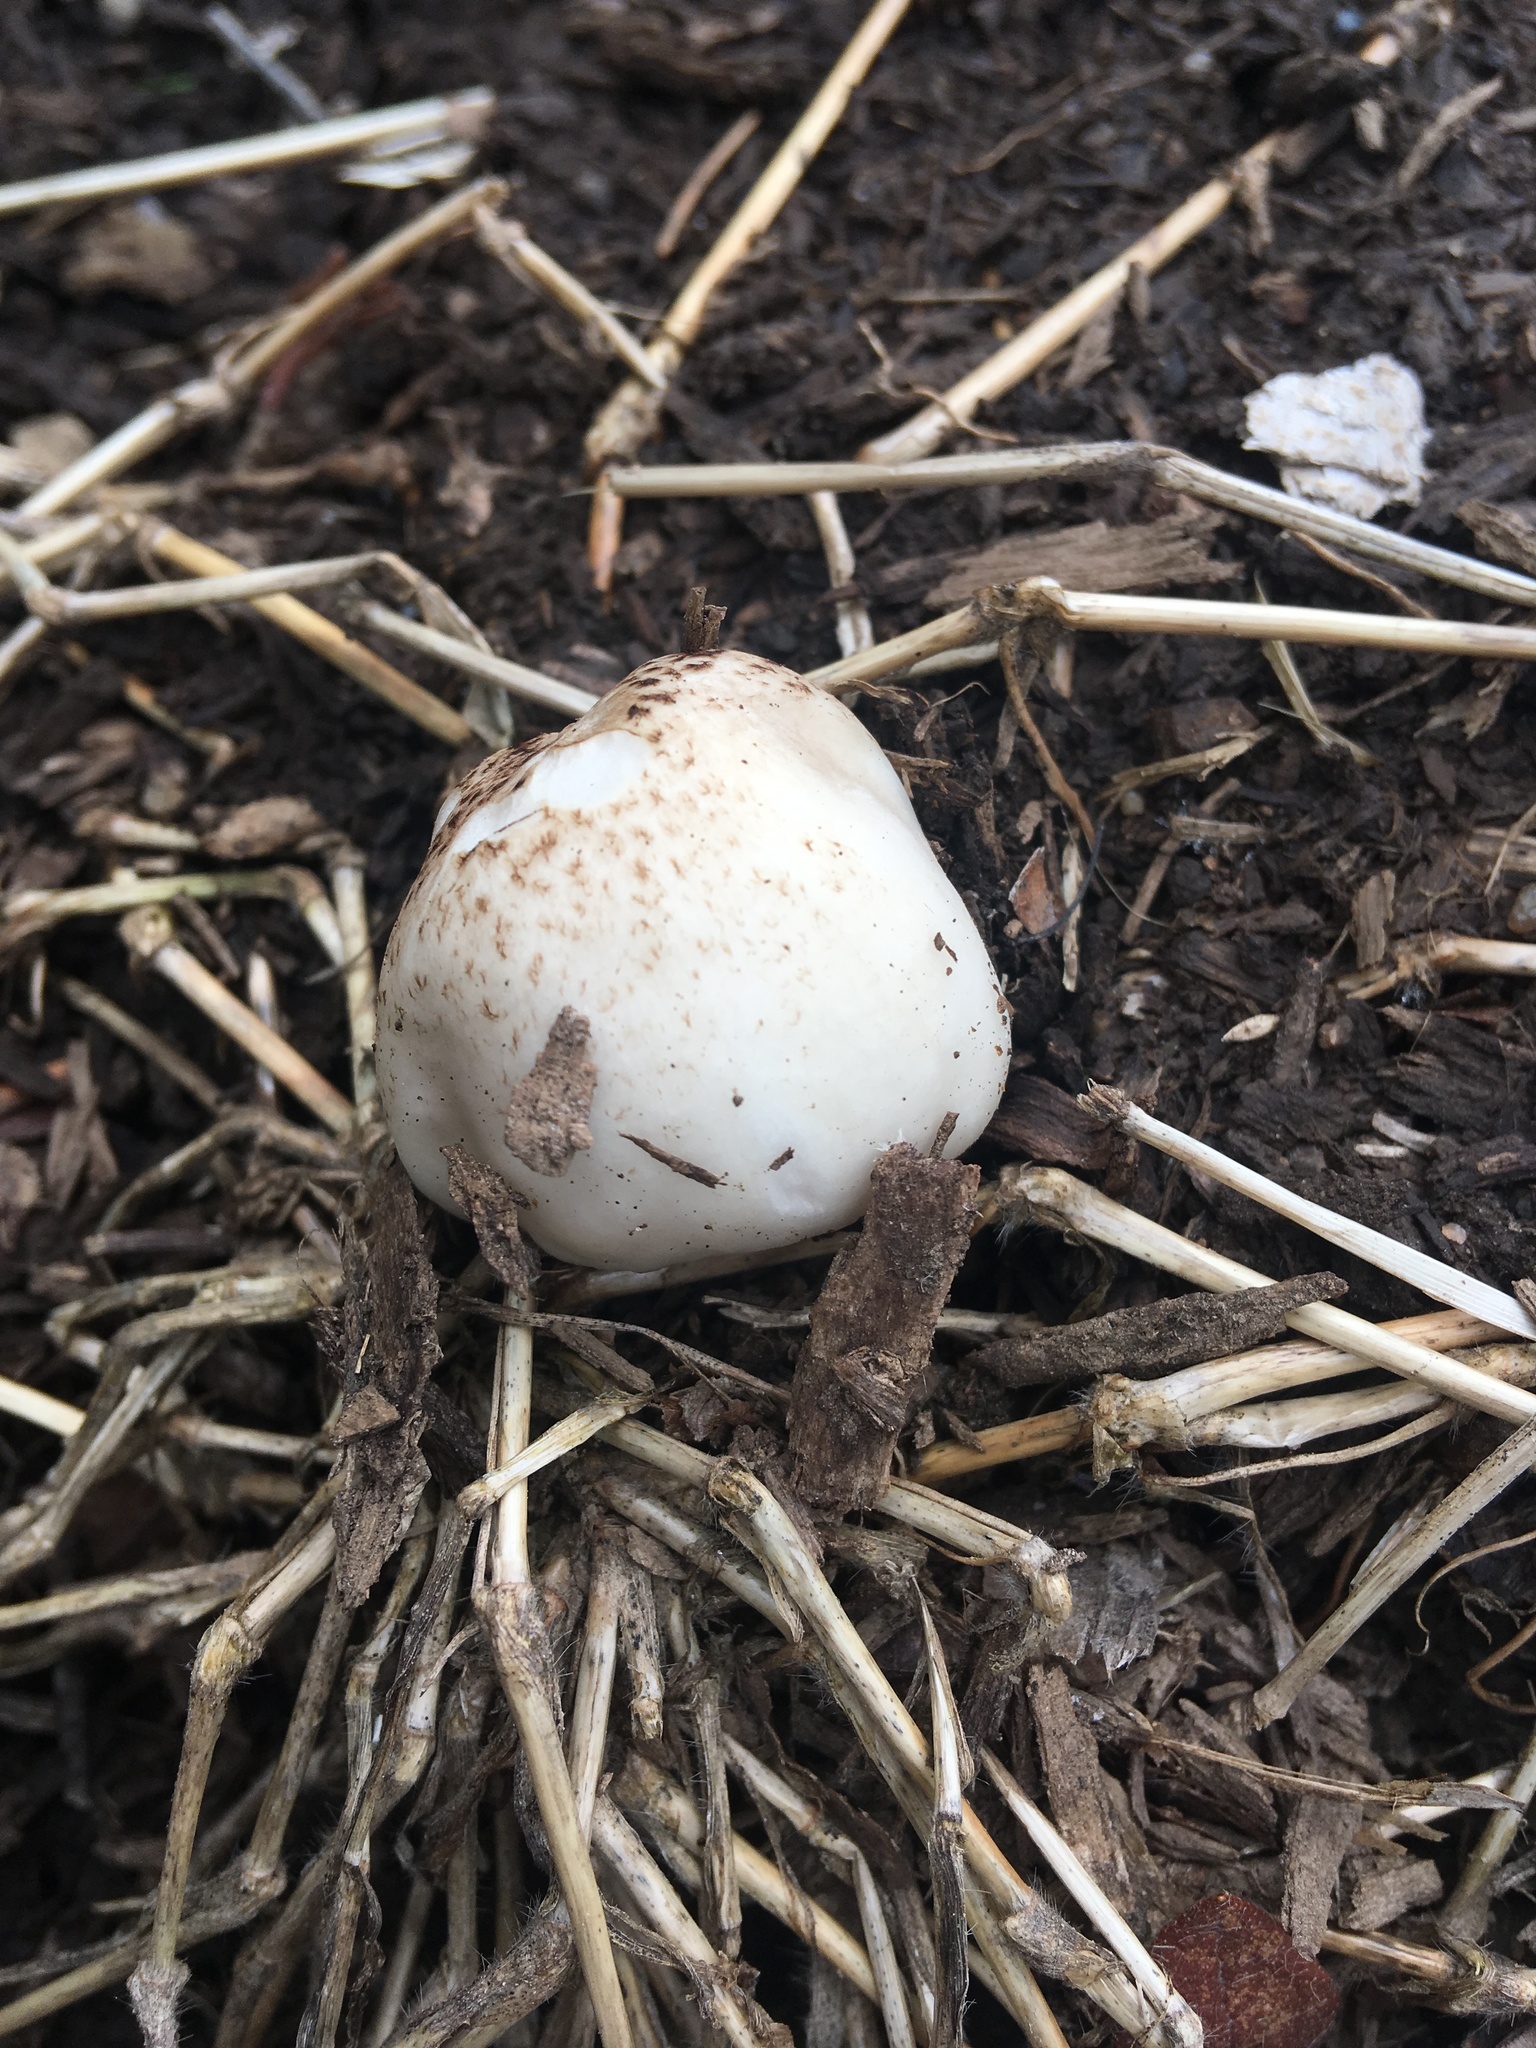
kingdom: Fungi
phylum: Basidiomycota
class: Agaricomycetes
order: Agaricales
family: Pluteaceae
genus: Pluteus
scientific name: Pluteus petasatus
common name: Scaly shield
